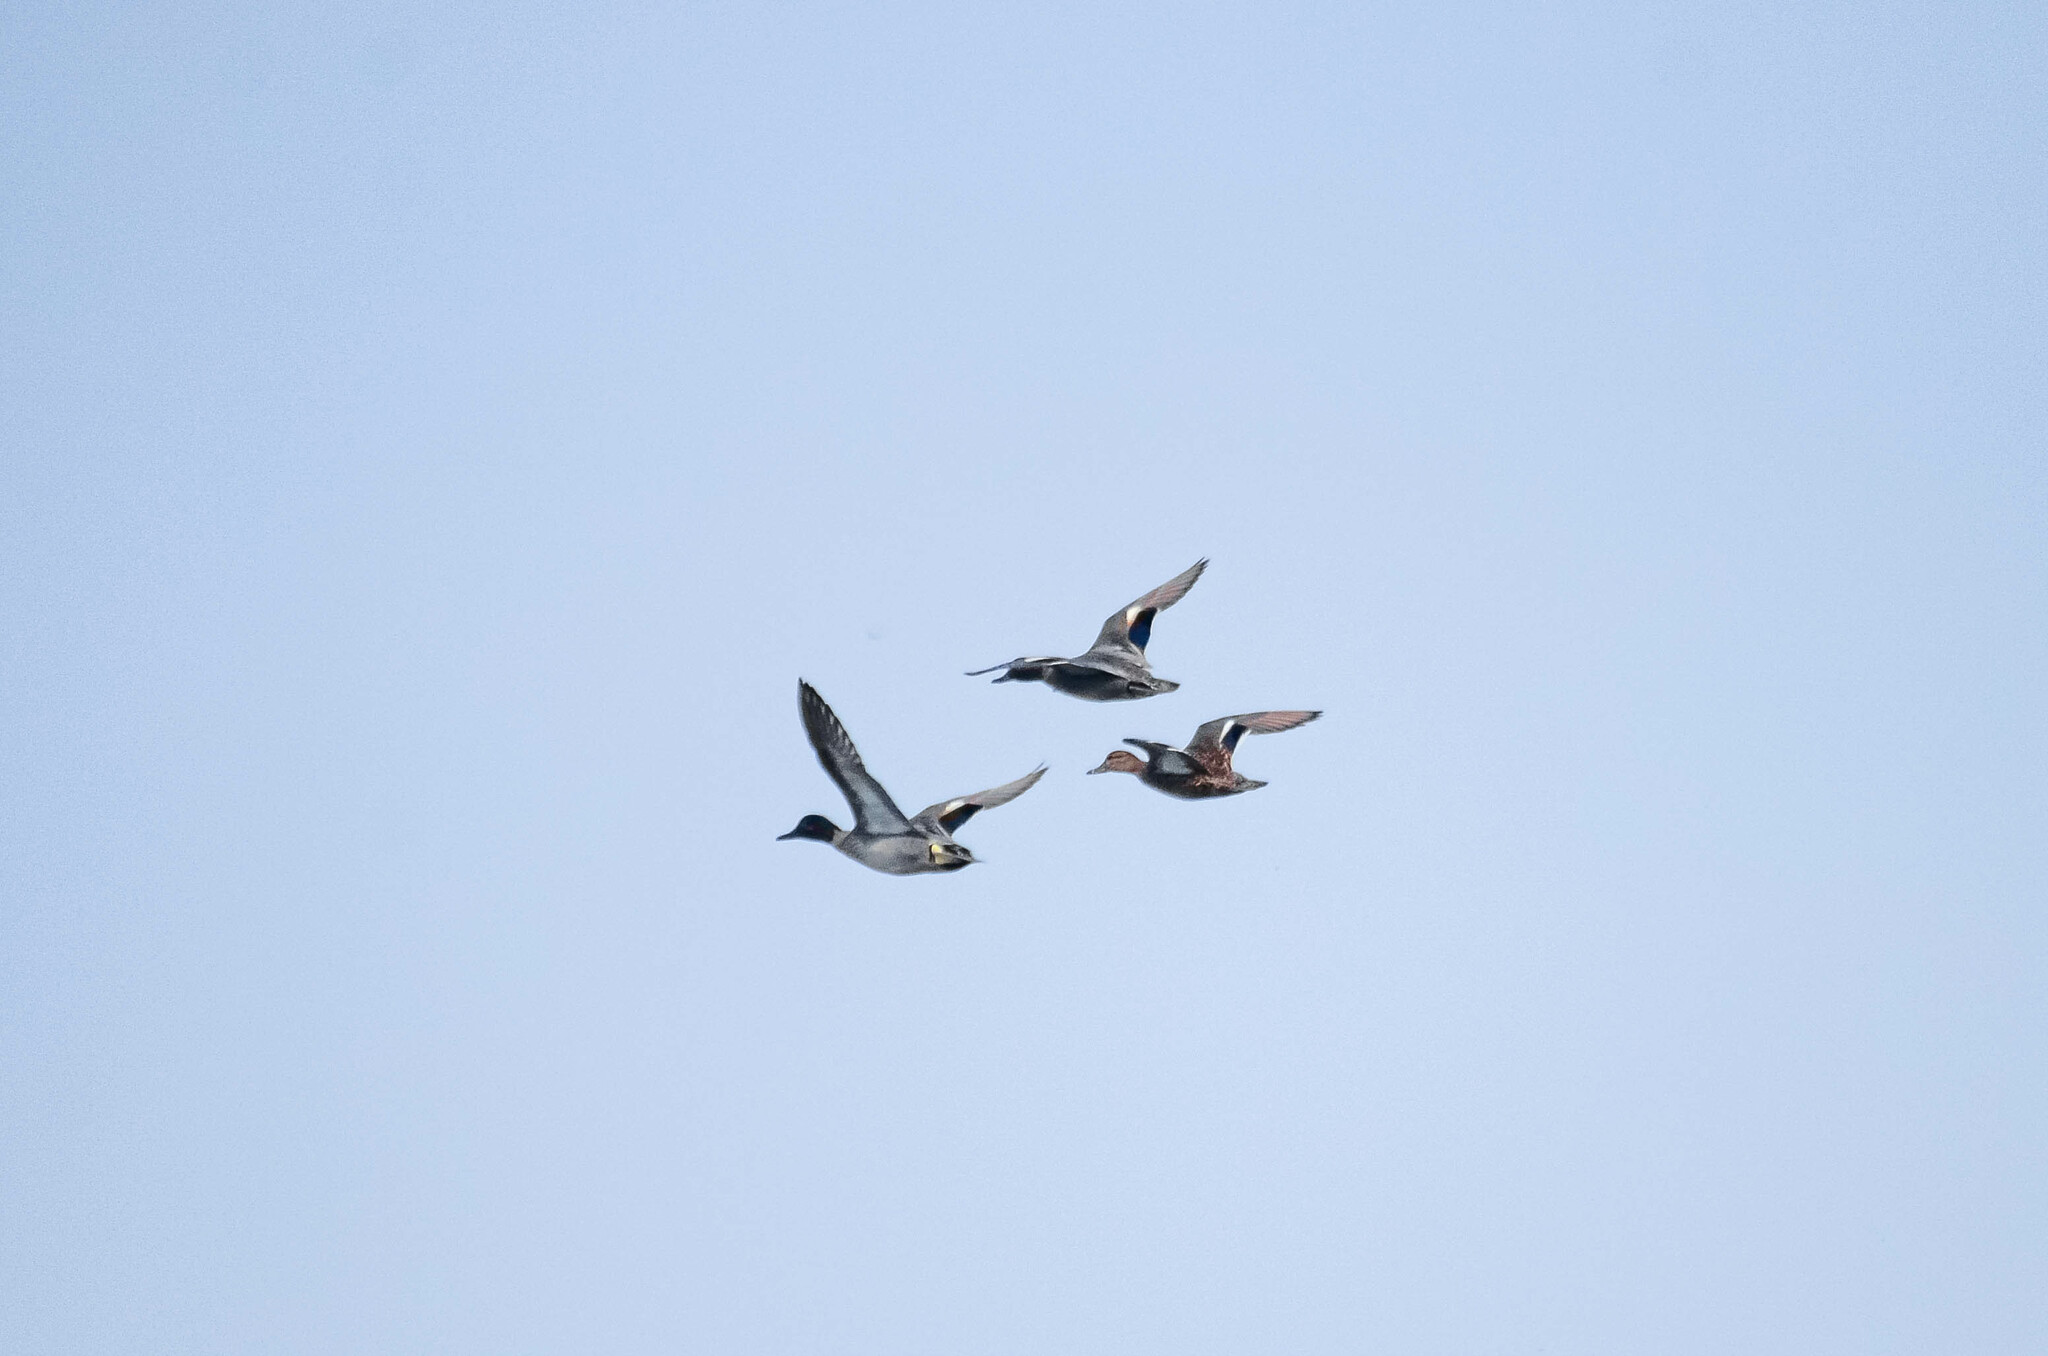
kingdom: Animalia
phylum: Chordata
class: Aves
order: Anseriformes
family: Anatidae
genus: Anas
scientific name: Anas crecca
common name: Eurasian teal
